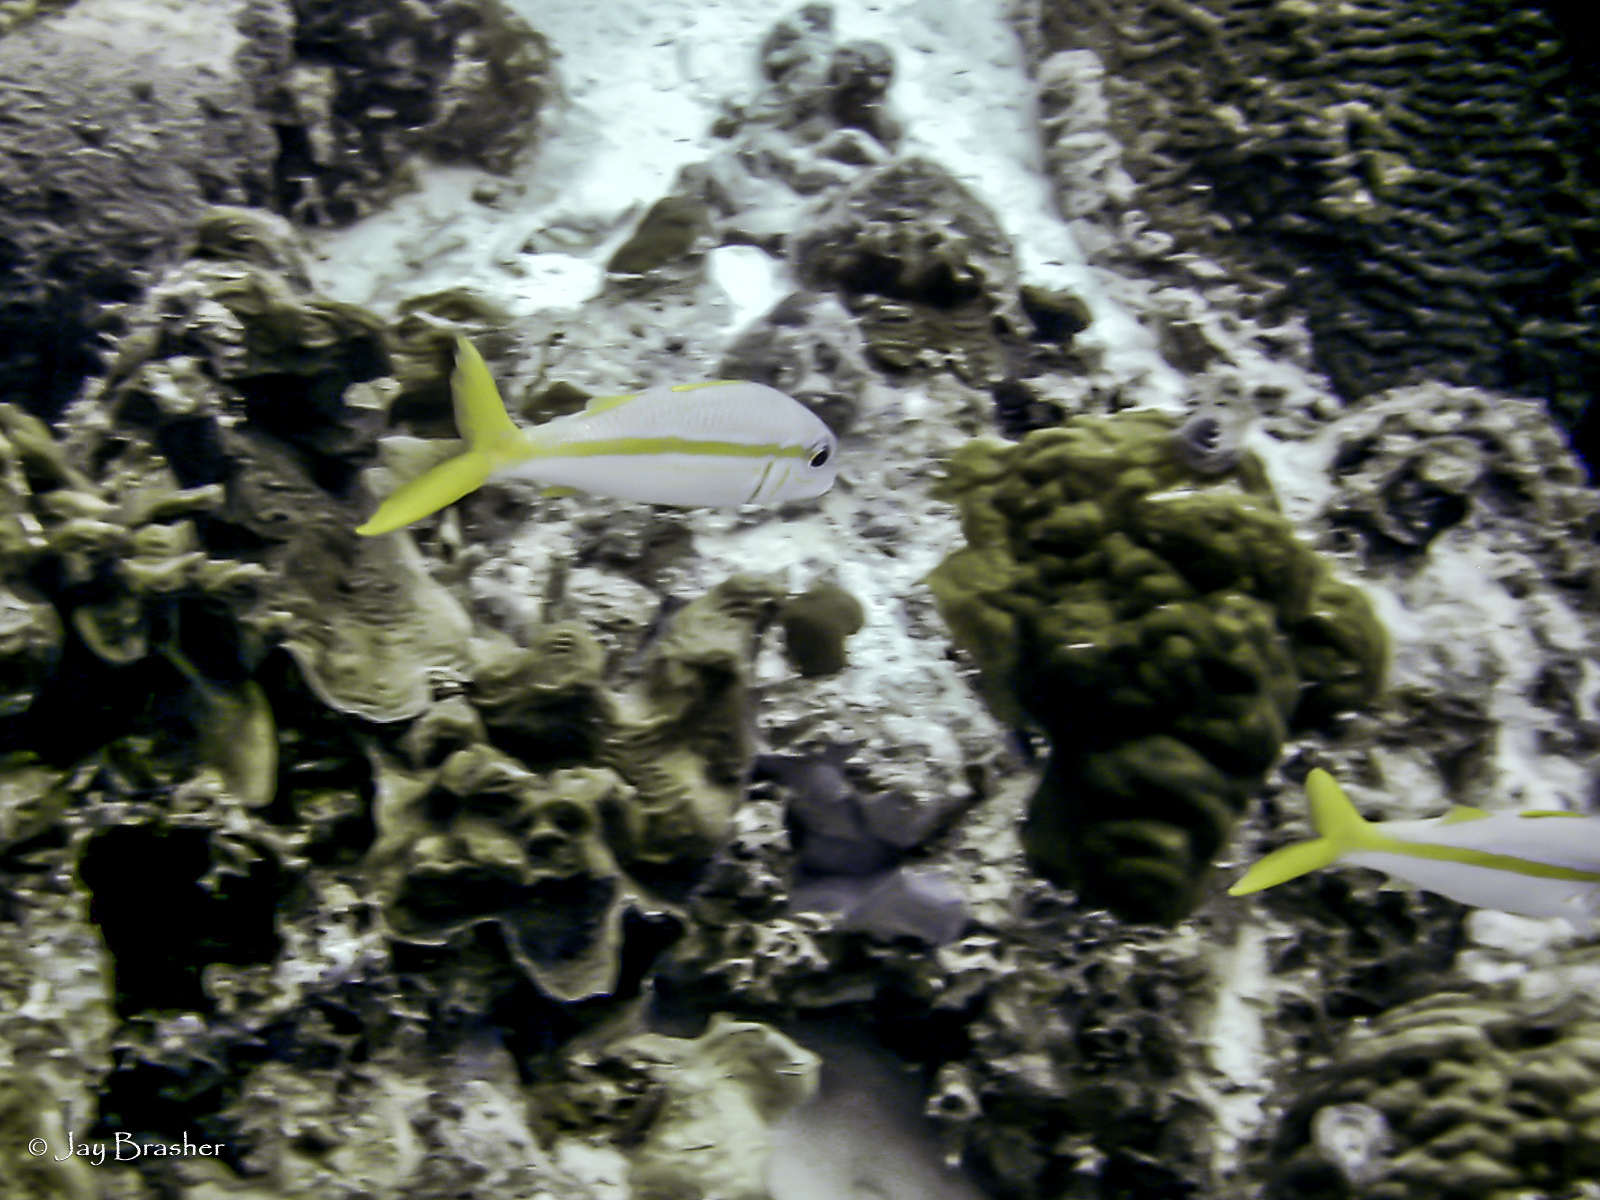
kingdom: Animalia
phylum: Chordata
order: Perciformes
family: Mullidae
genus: Mulloidichthys
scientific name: Mulloidichthys martinicus
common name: Yellow goatfish
